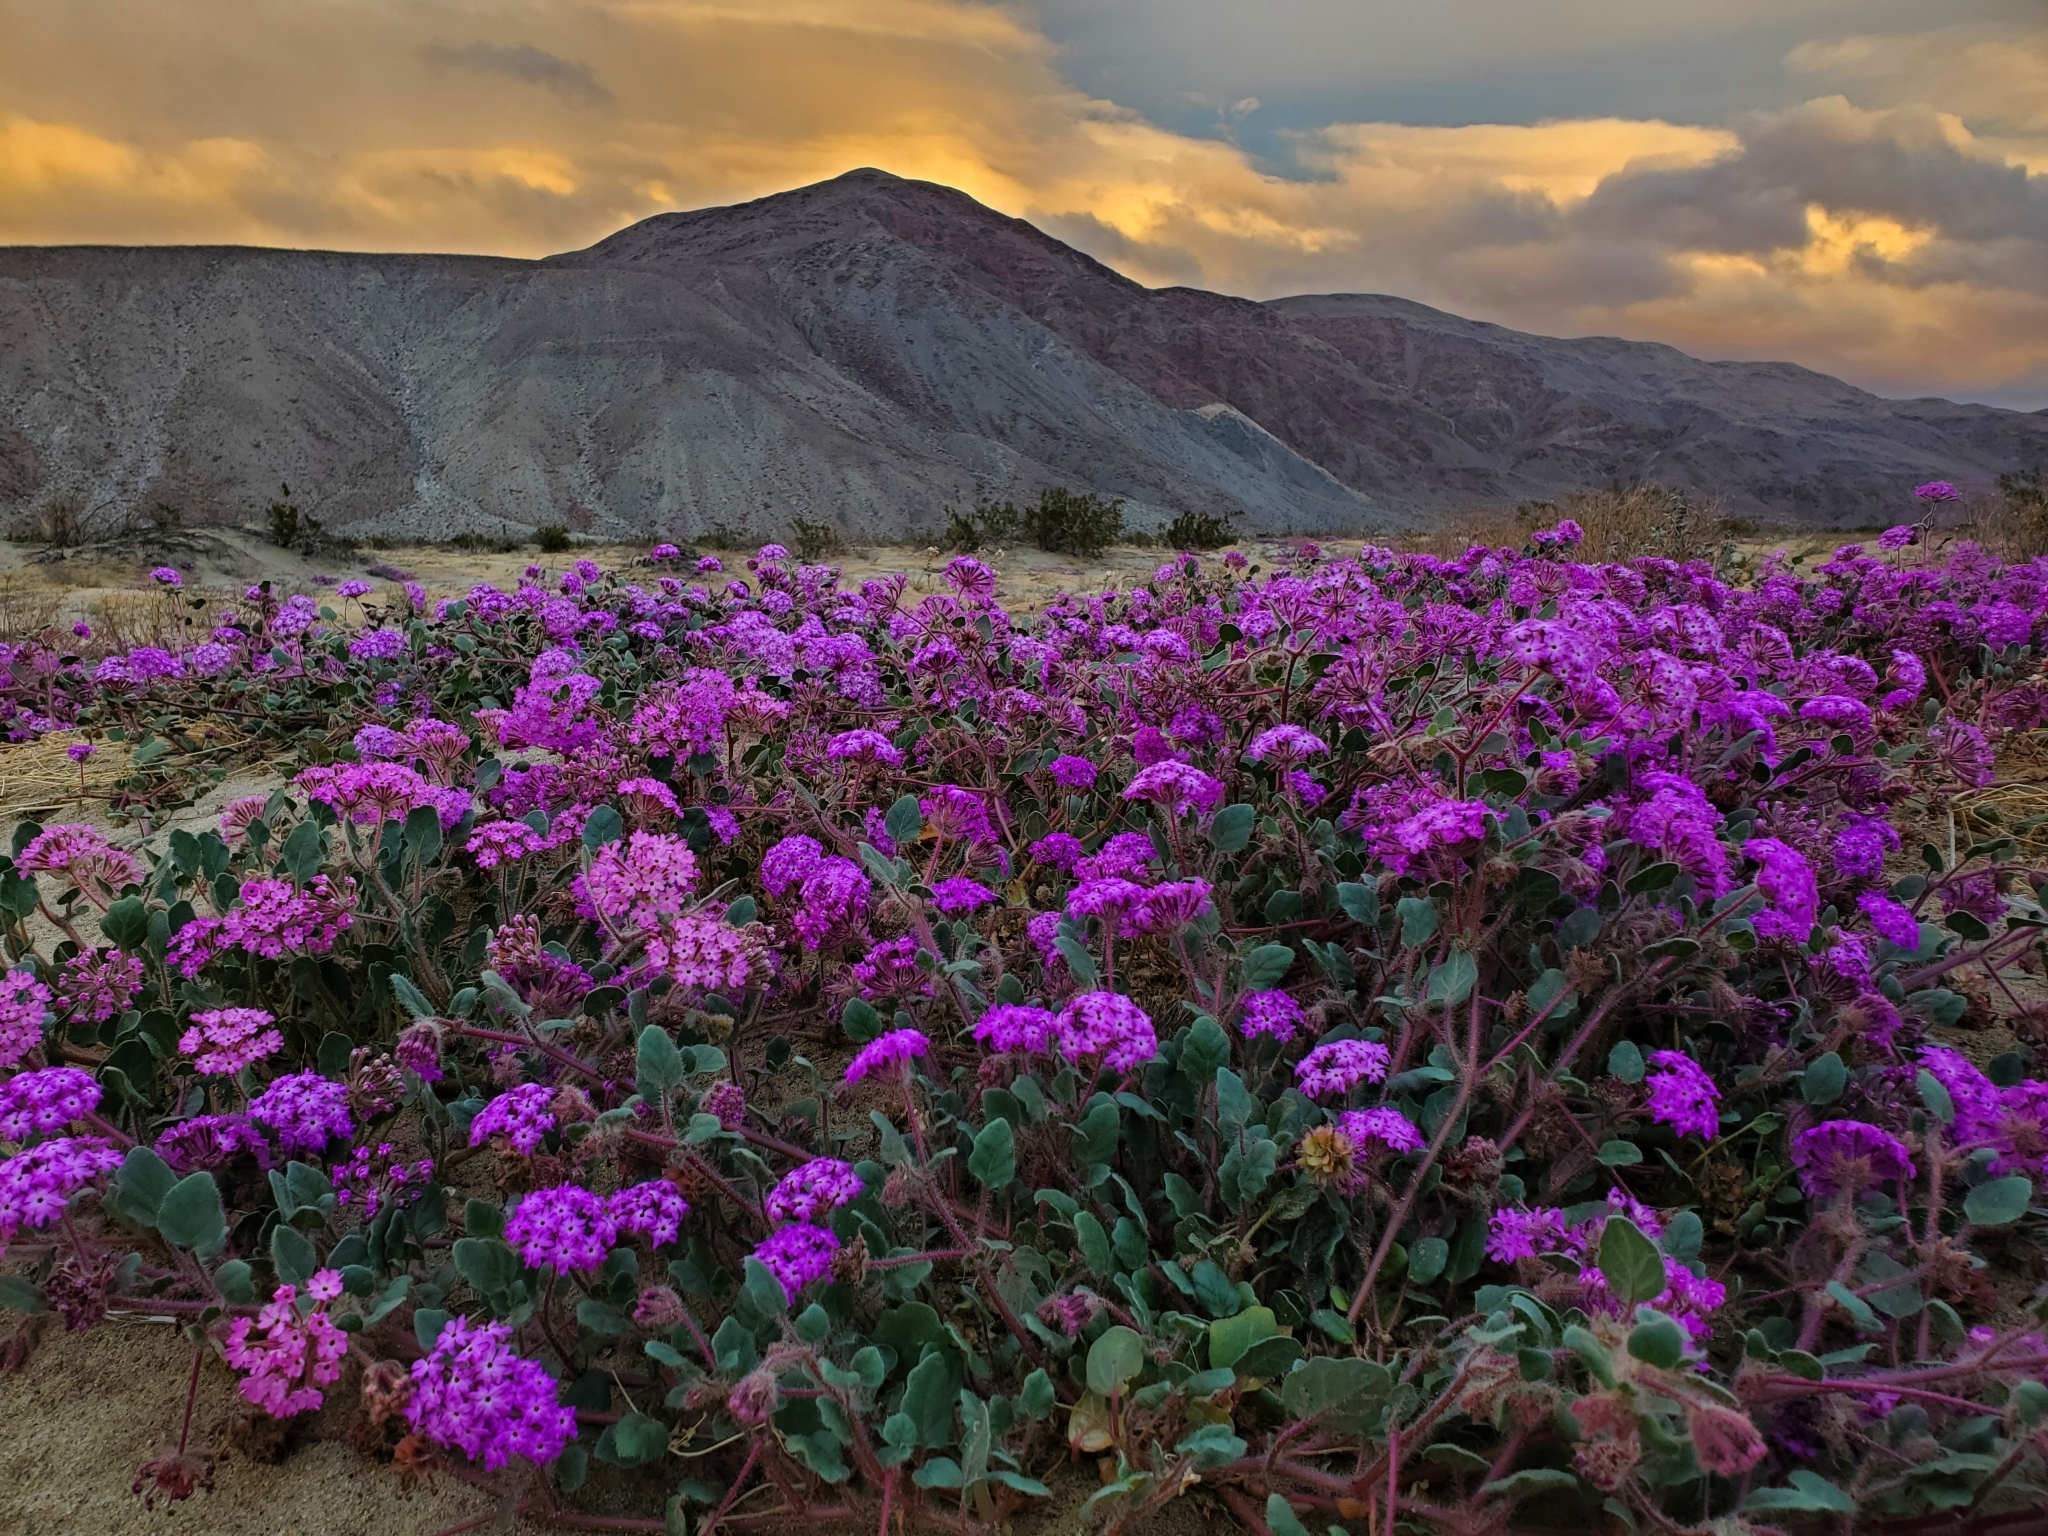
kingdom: Plantae
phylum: Tracheophyta
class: Magnoliopsida
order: Caryophyllales
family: Nyctaginaceae
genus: Abronia
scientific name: Abronia villosa
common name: Desert sand-verbena
